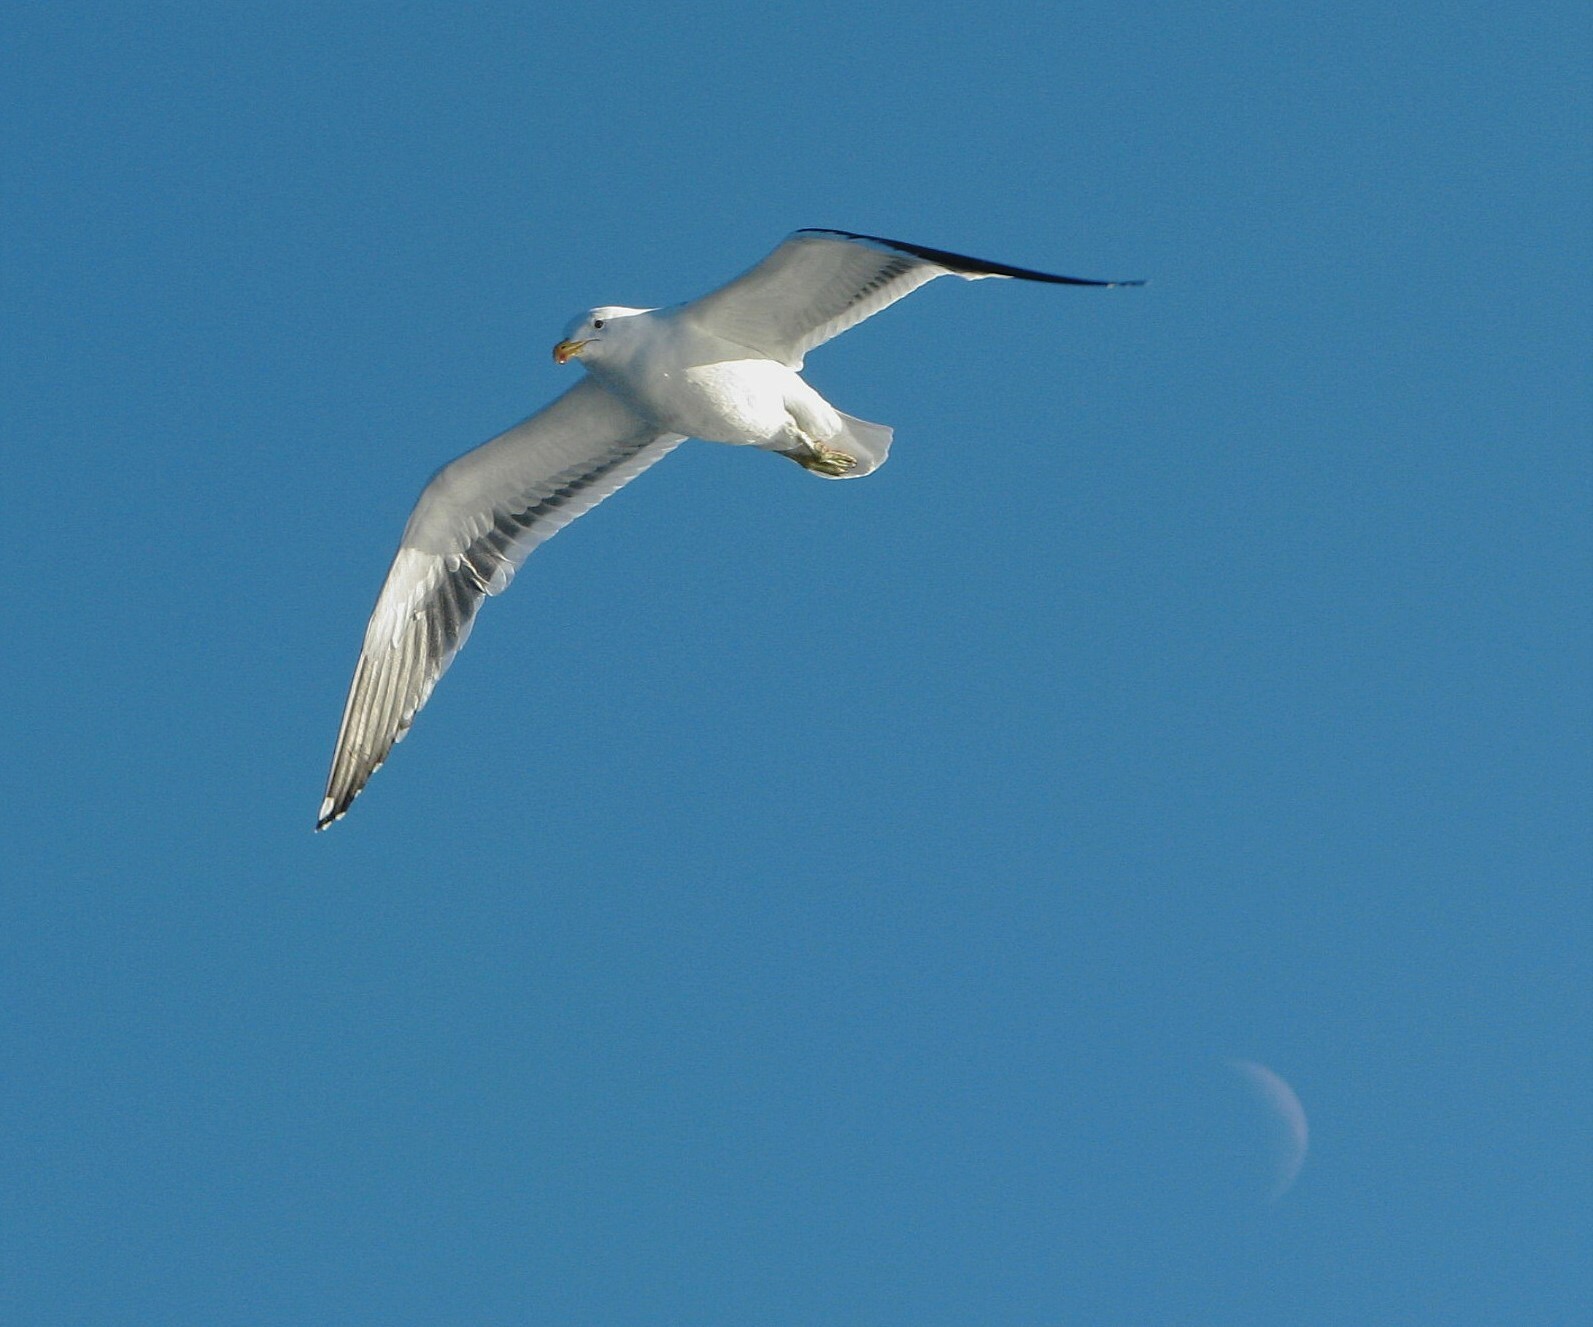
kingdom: Animalia
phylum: Chordata
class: Aves
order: Charadriiformes
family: Laridae
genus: Larus
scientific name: Larus dominicanus
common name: Kelp gull
